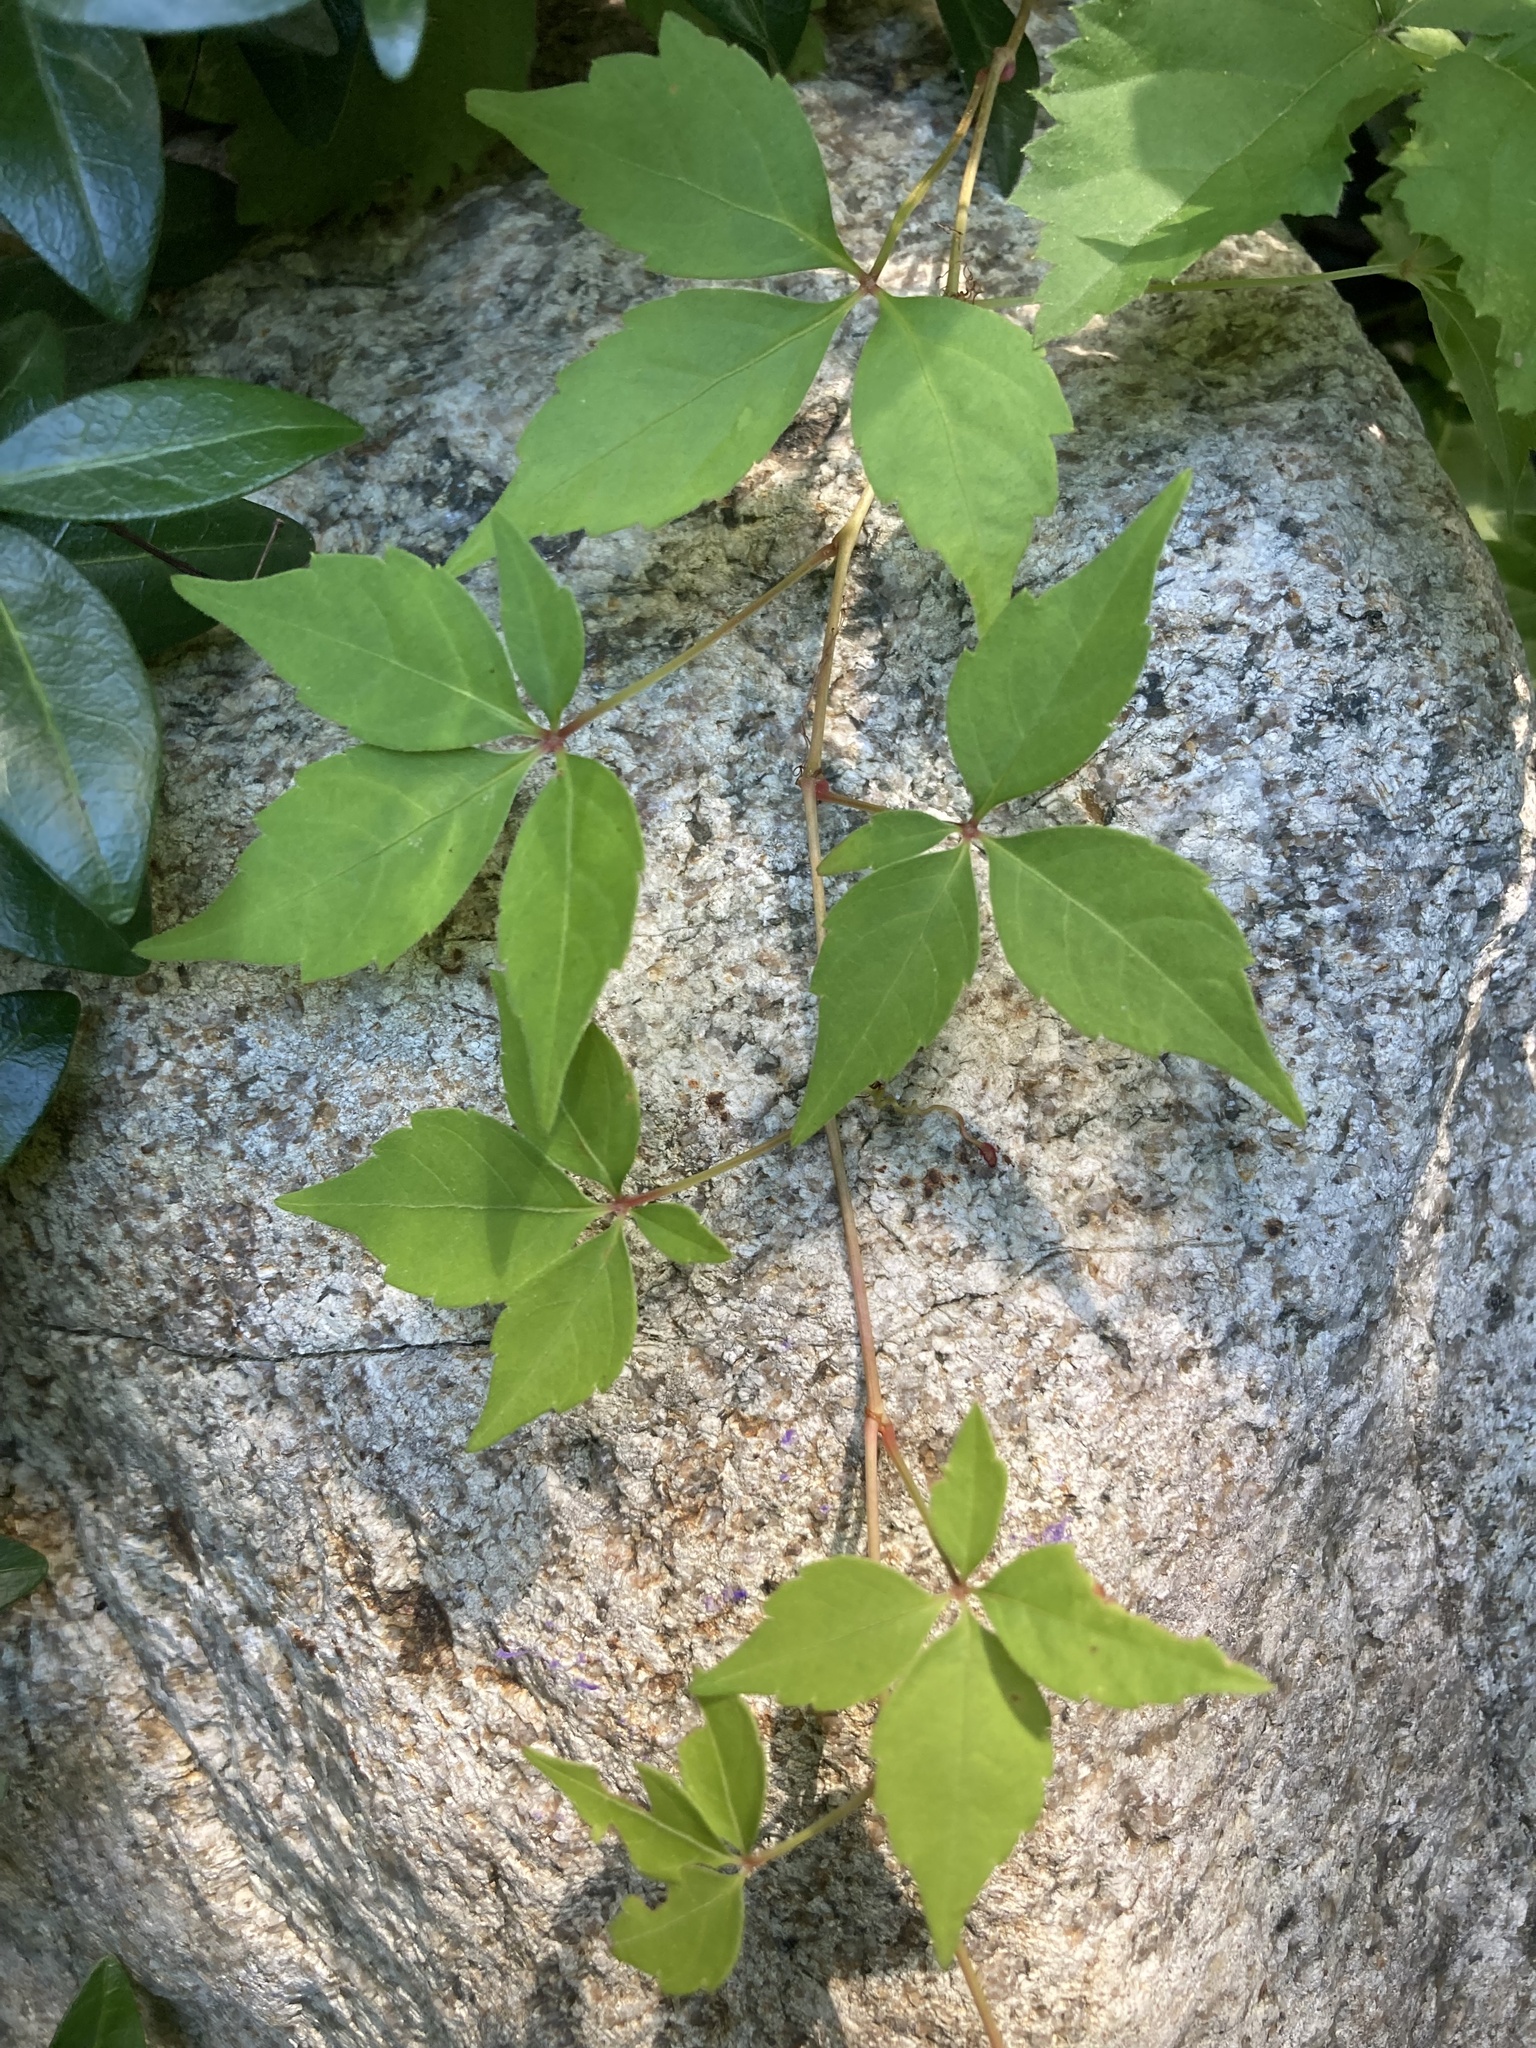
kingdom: Plantae
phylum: Tracheophyta
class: Magnoliopsida
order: Vitales
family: Vitaceae
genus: Parthenocissus
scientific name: Parthenocissus quinquefolia
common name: Virginia-creeper
